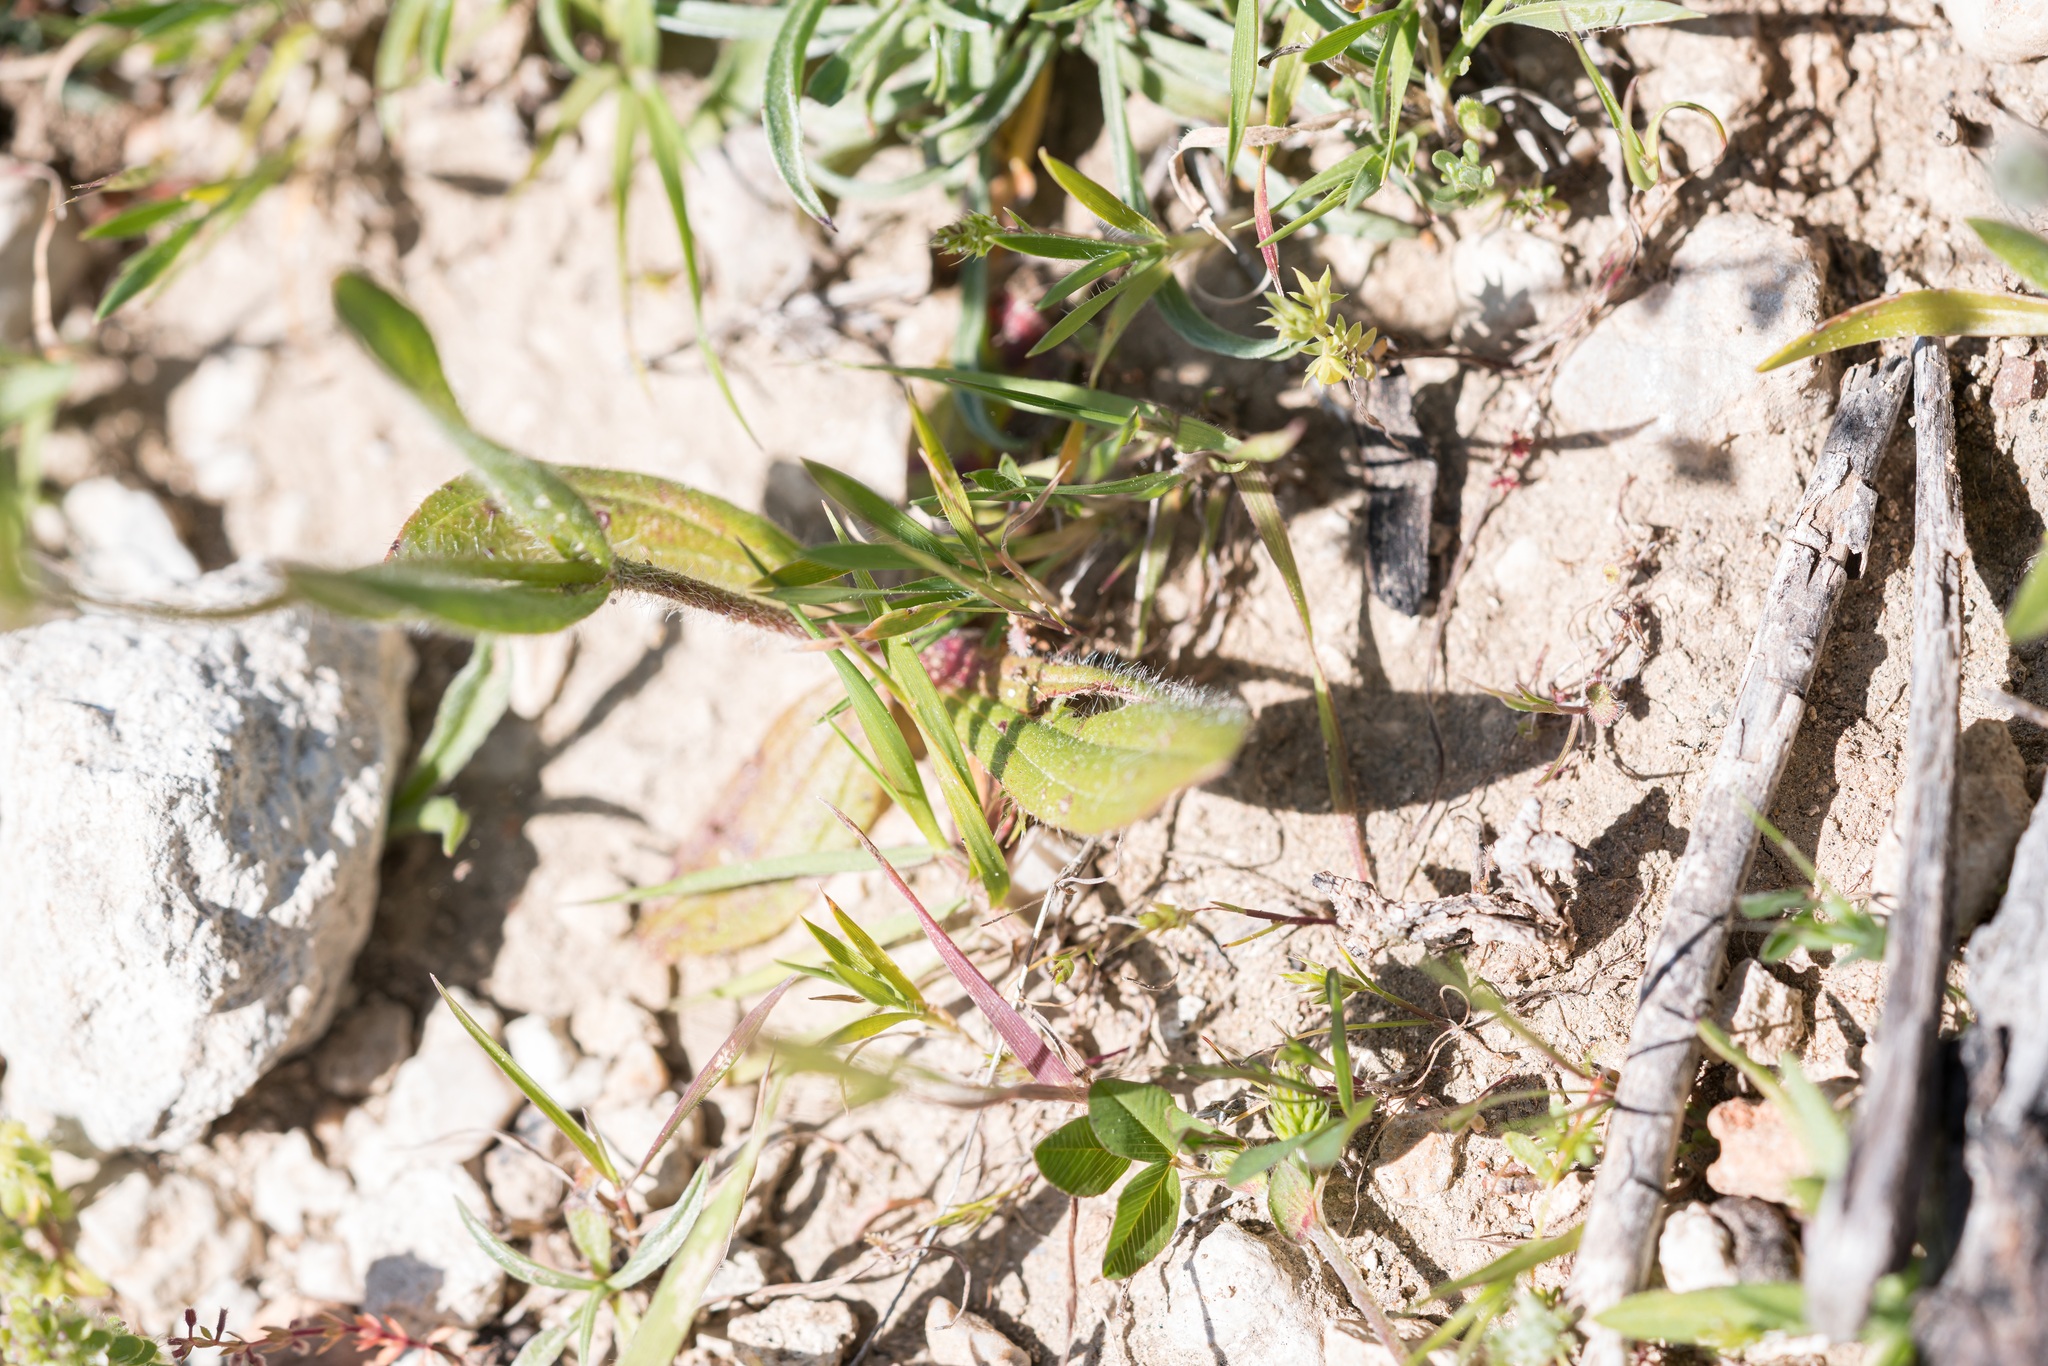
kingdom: Plantae
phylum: Tracheophyta
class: Magnoliopsida
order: Malvales
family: Cistaceae
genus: Tuberaria
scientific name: Tuberaria guttata
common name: Spotted rock-rose
